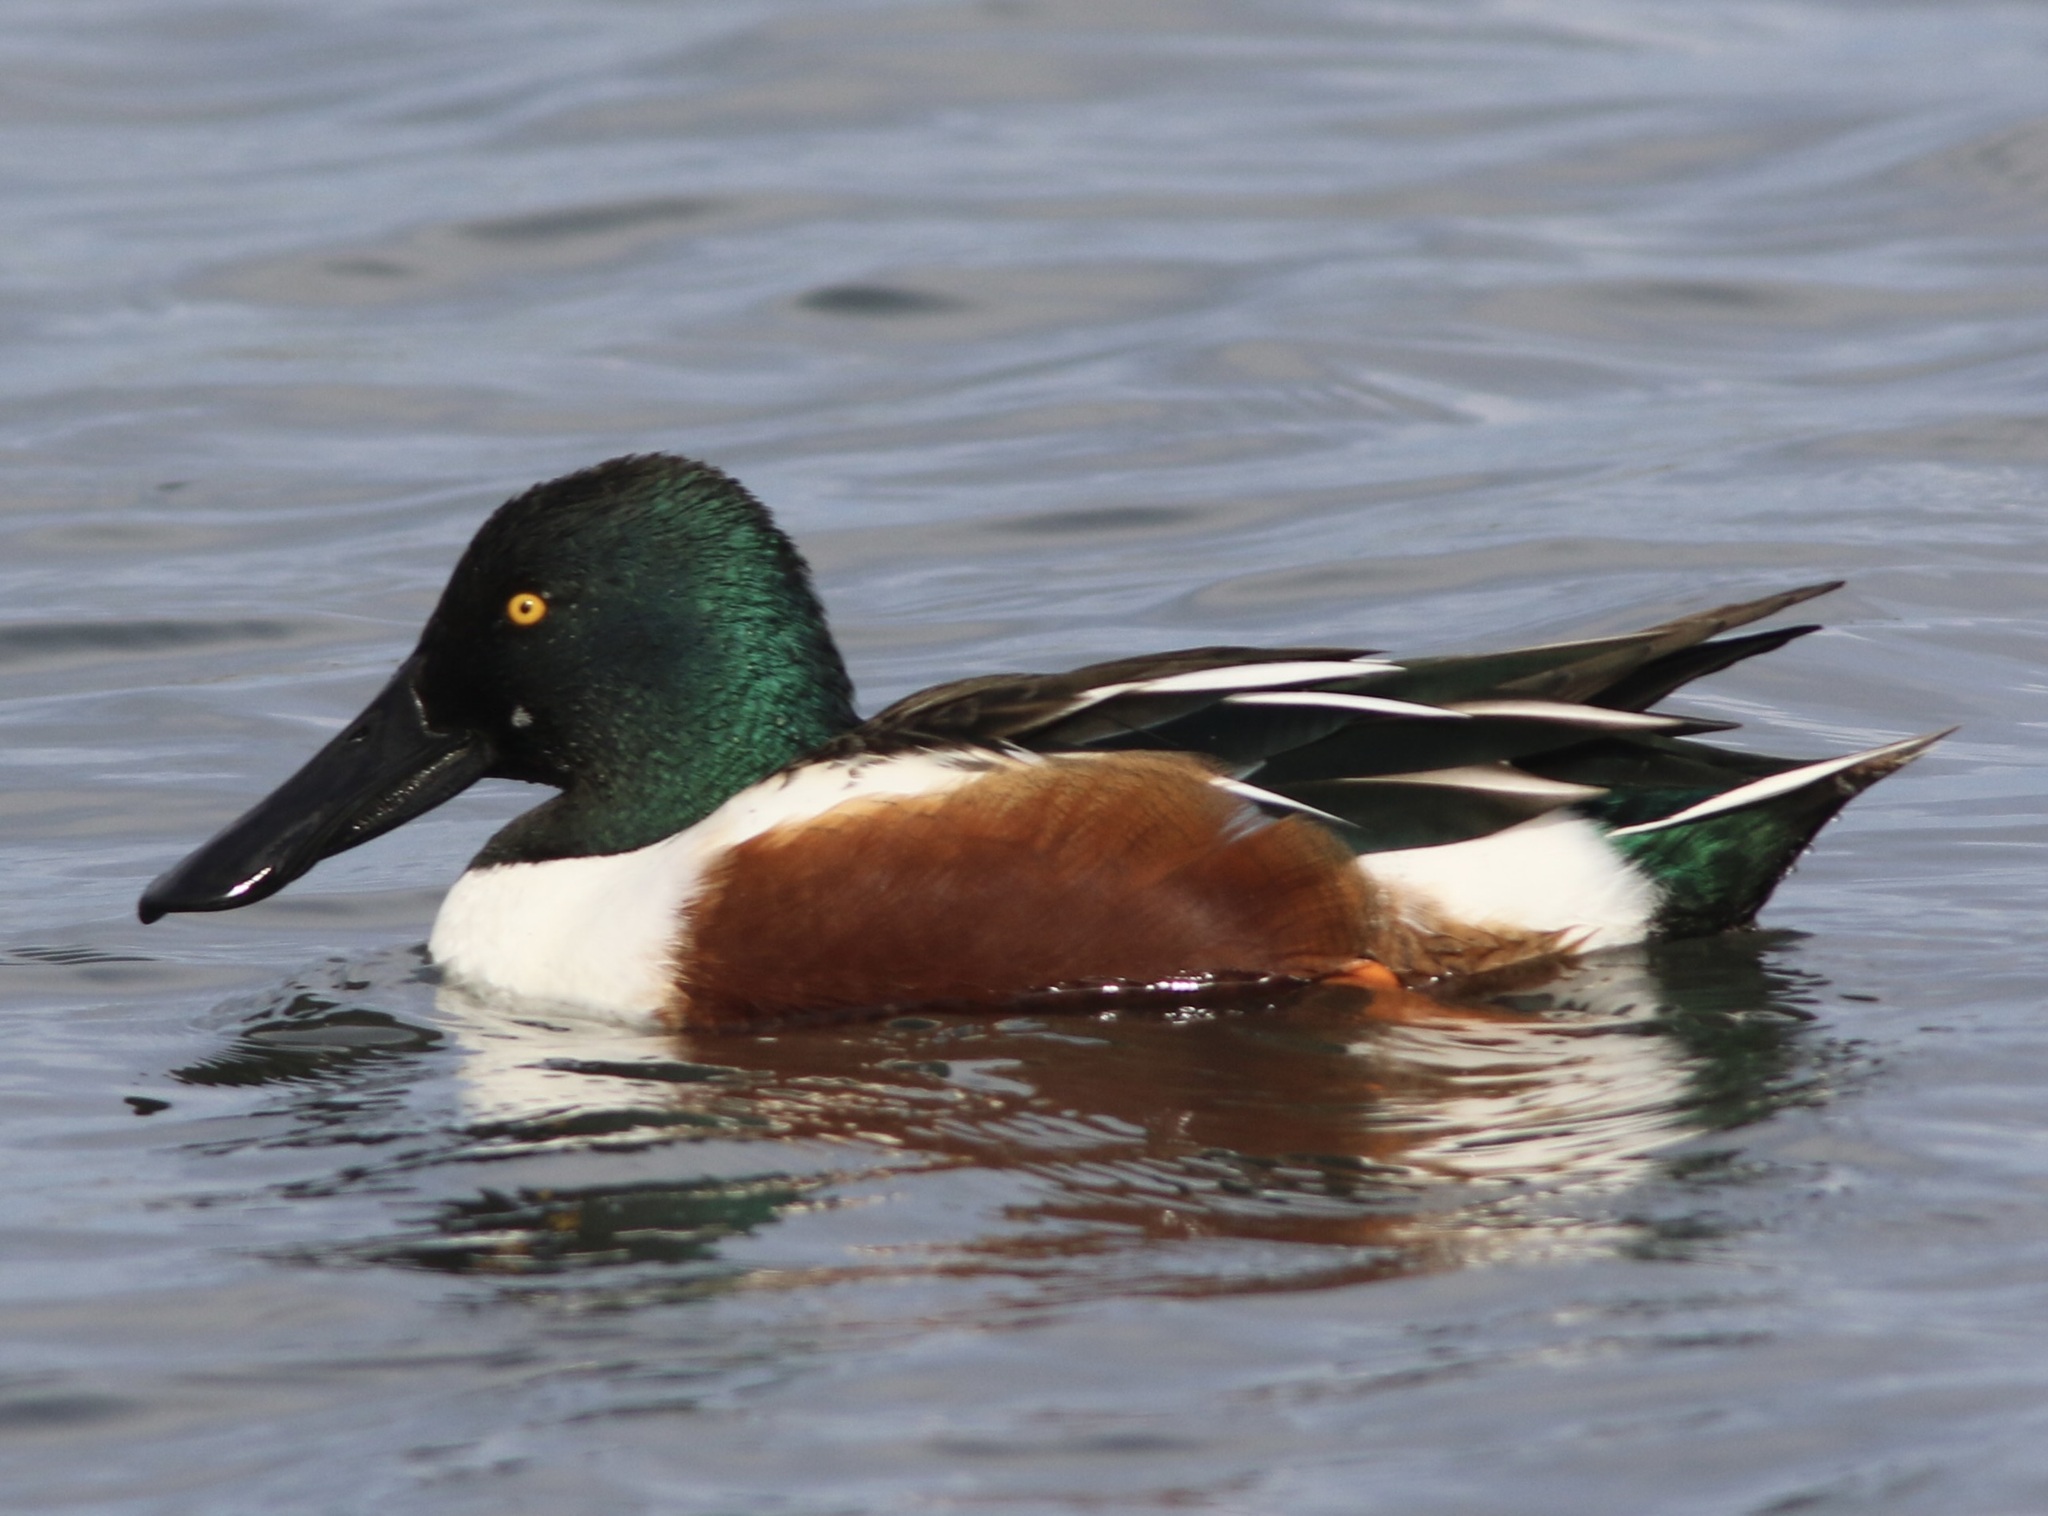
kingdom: Animalia
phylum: Chordata
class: Aves
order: Anseriformes
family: Anatidae
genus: Spatula
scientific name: Spatula clypeata
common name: Northern shoveler
